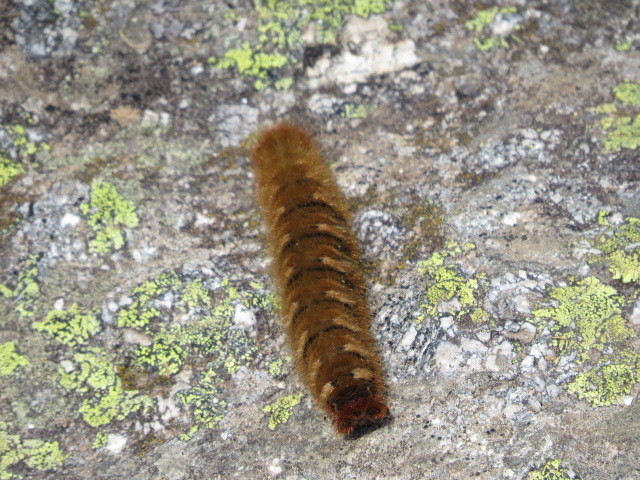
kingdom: Animalia
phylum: Arthropoda
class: Insecta
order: Lepidoptera
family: Lasiocampidae
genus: Lasiocampa
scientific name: Lasiocampa quercus
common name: Oak eggar
